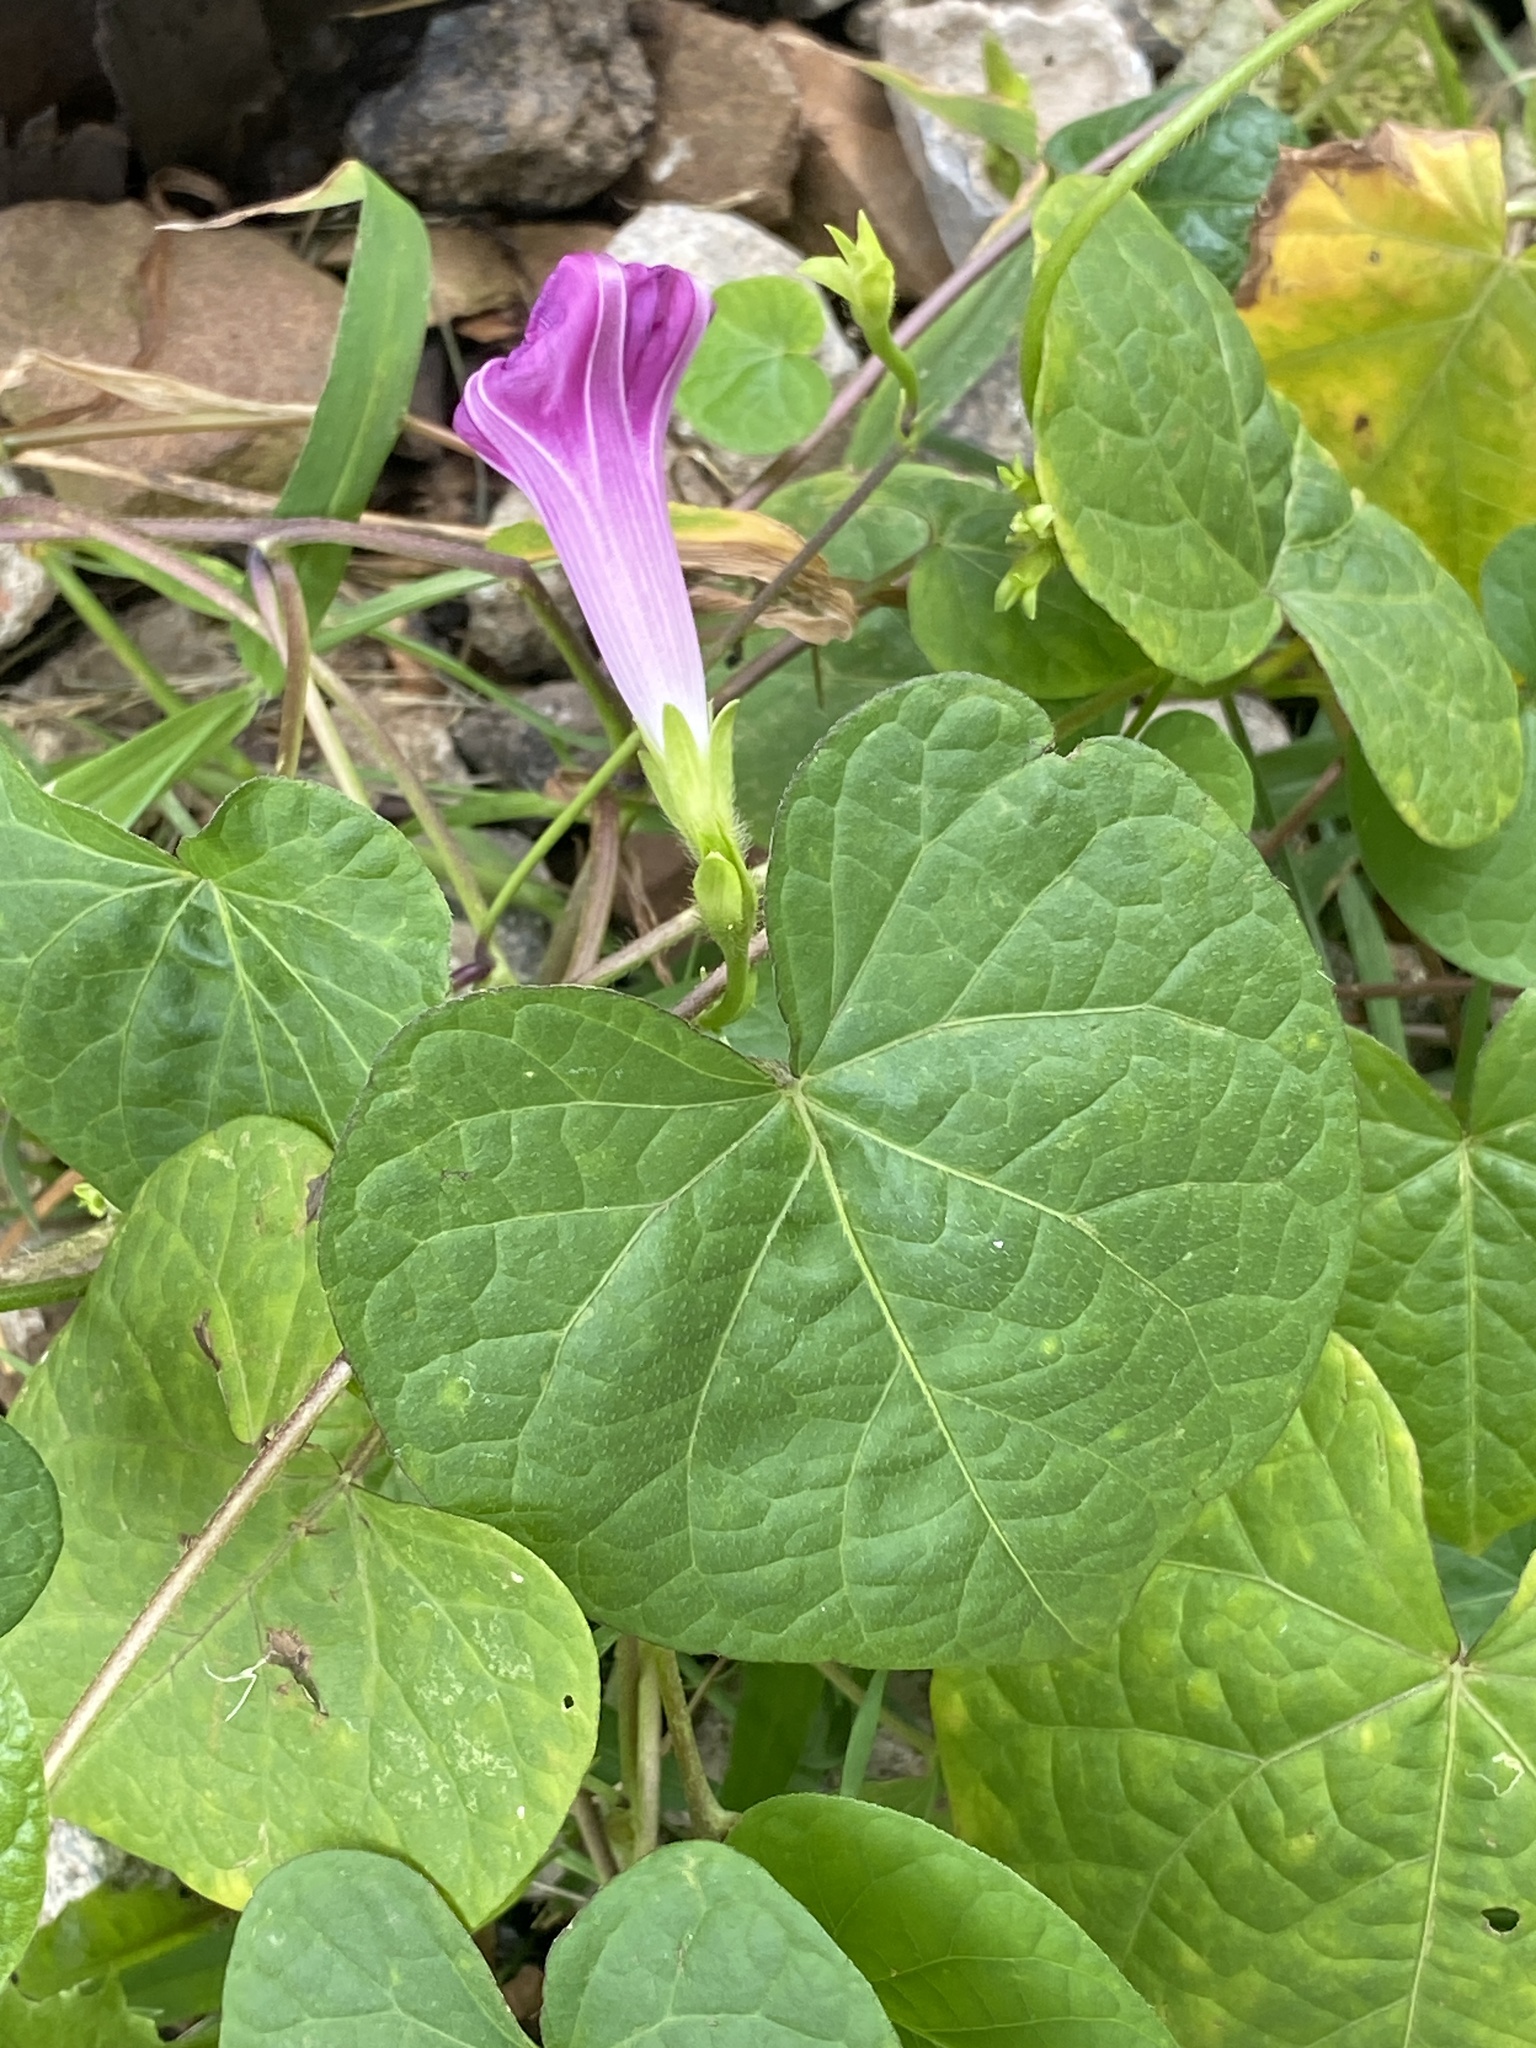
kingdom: Plantae
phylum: Tracheophyta
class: Magnoliopsida
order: Solanales
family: Convolvulaceae
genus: Ipomoea
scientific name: Ipomoea purpurea
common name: Common morning-glory
